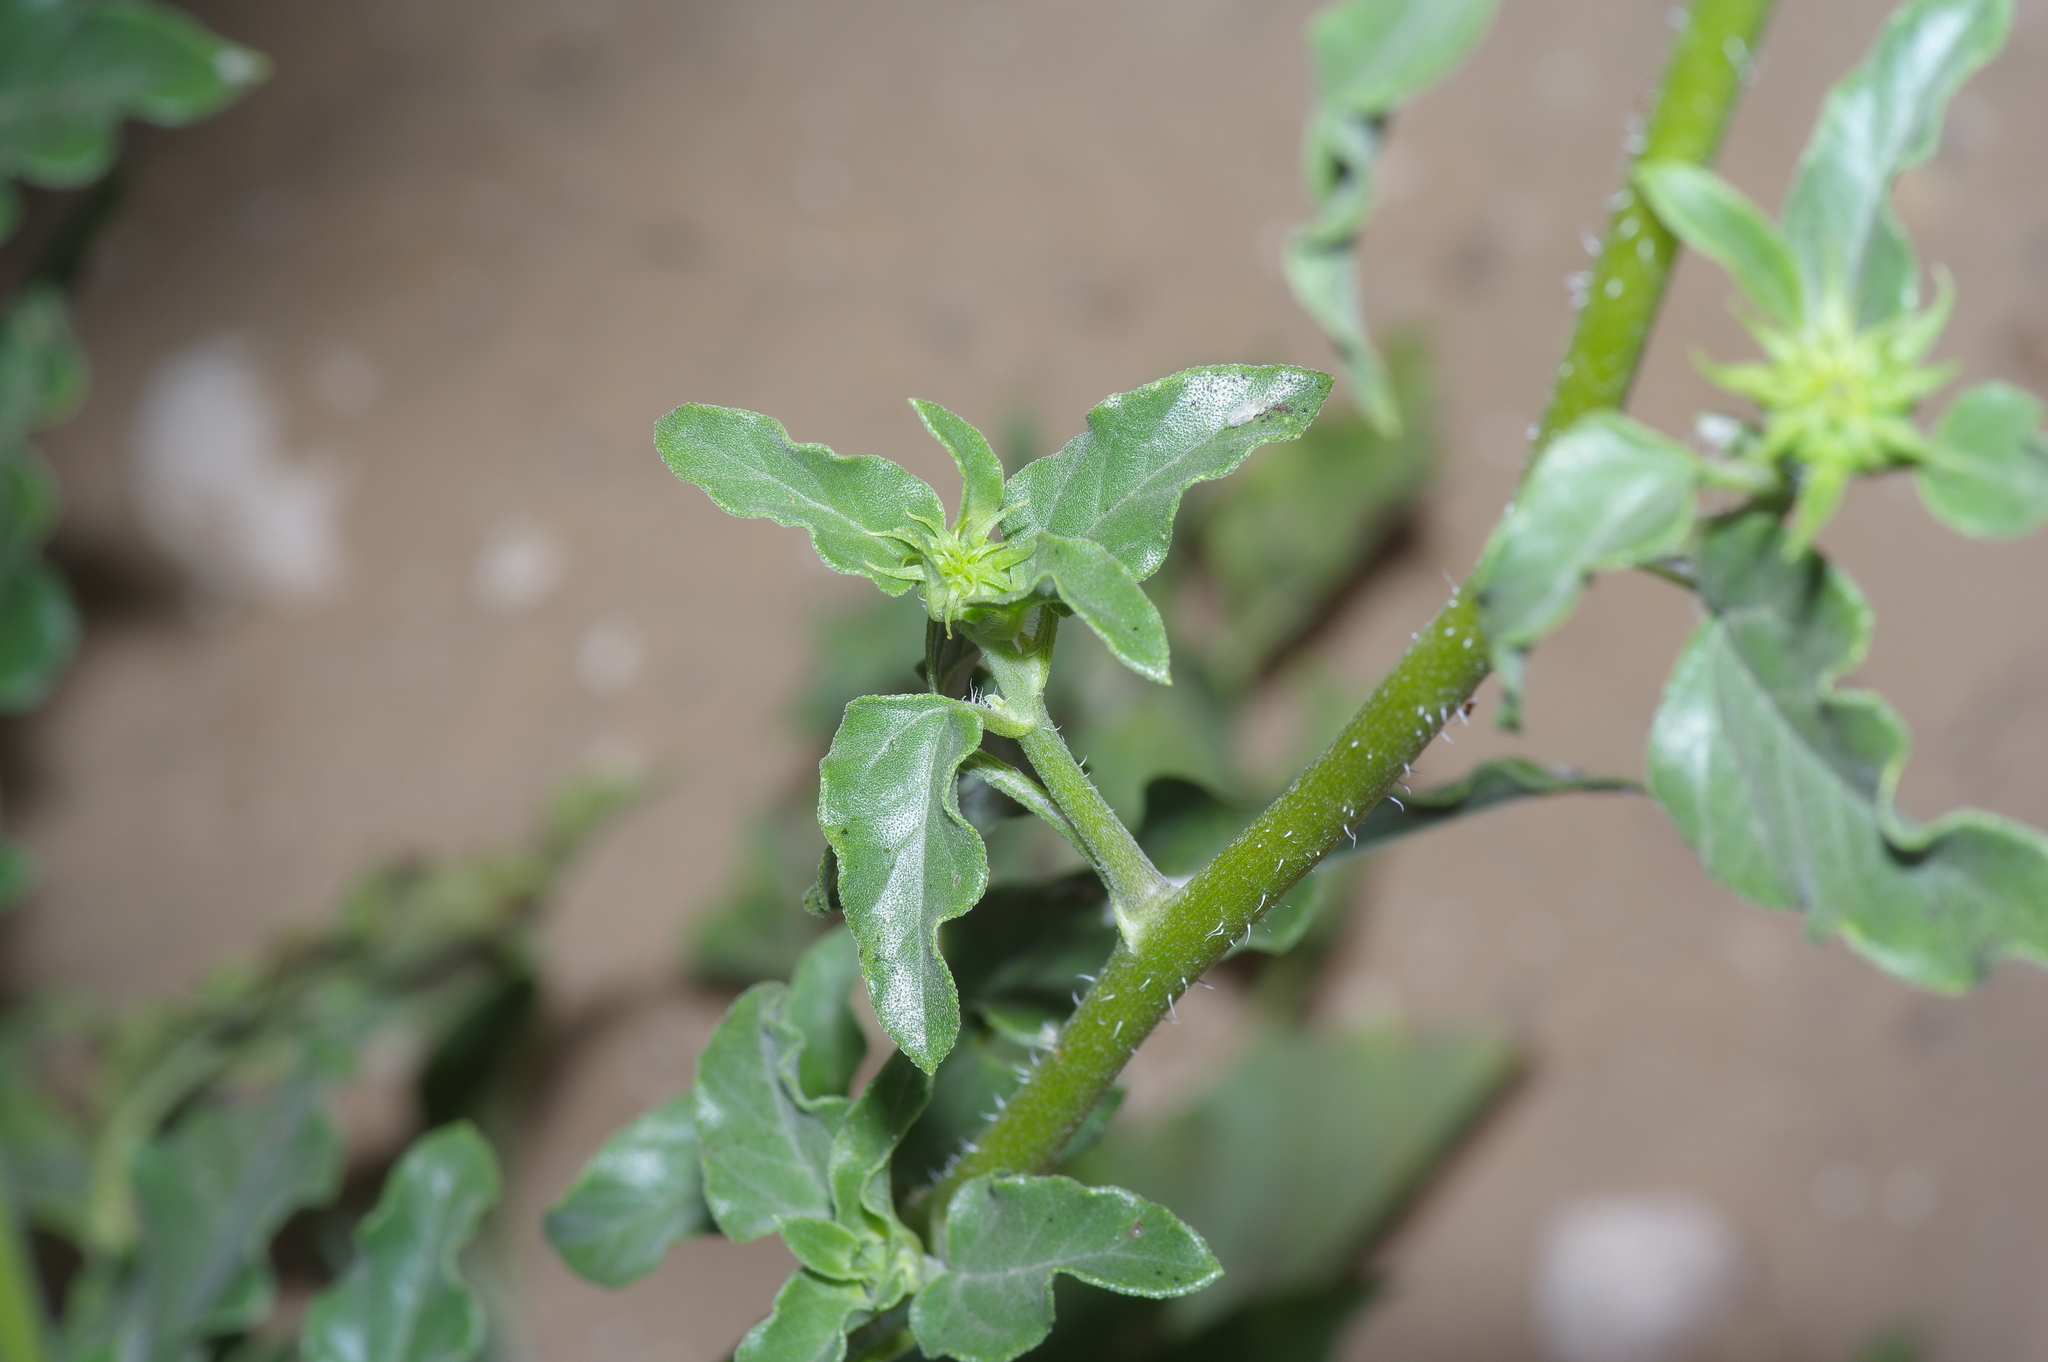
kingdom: Plantae
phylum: Tracheophyta
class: Magnoliopsida
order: Asterales
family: Asteraceae
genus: Helianthus
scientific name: Helianthus neglectus
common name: Neglected sunflower
